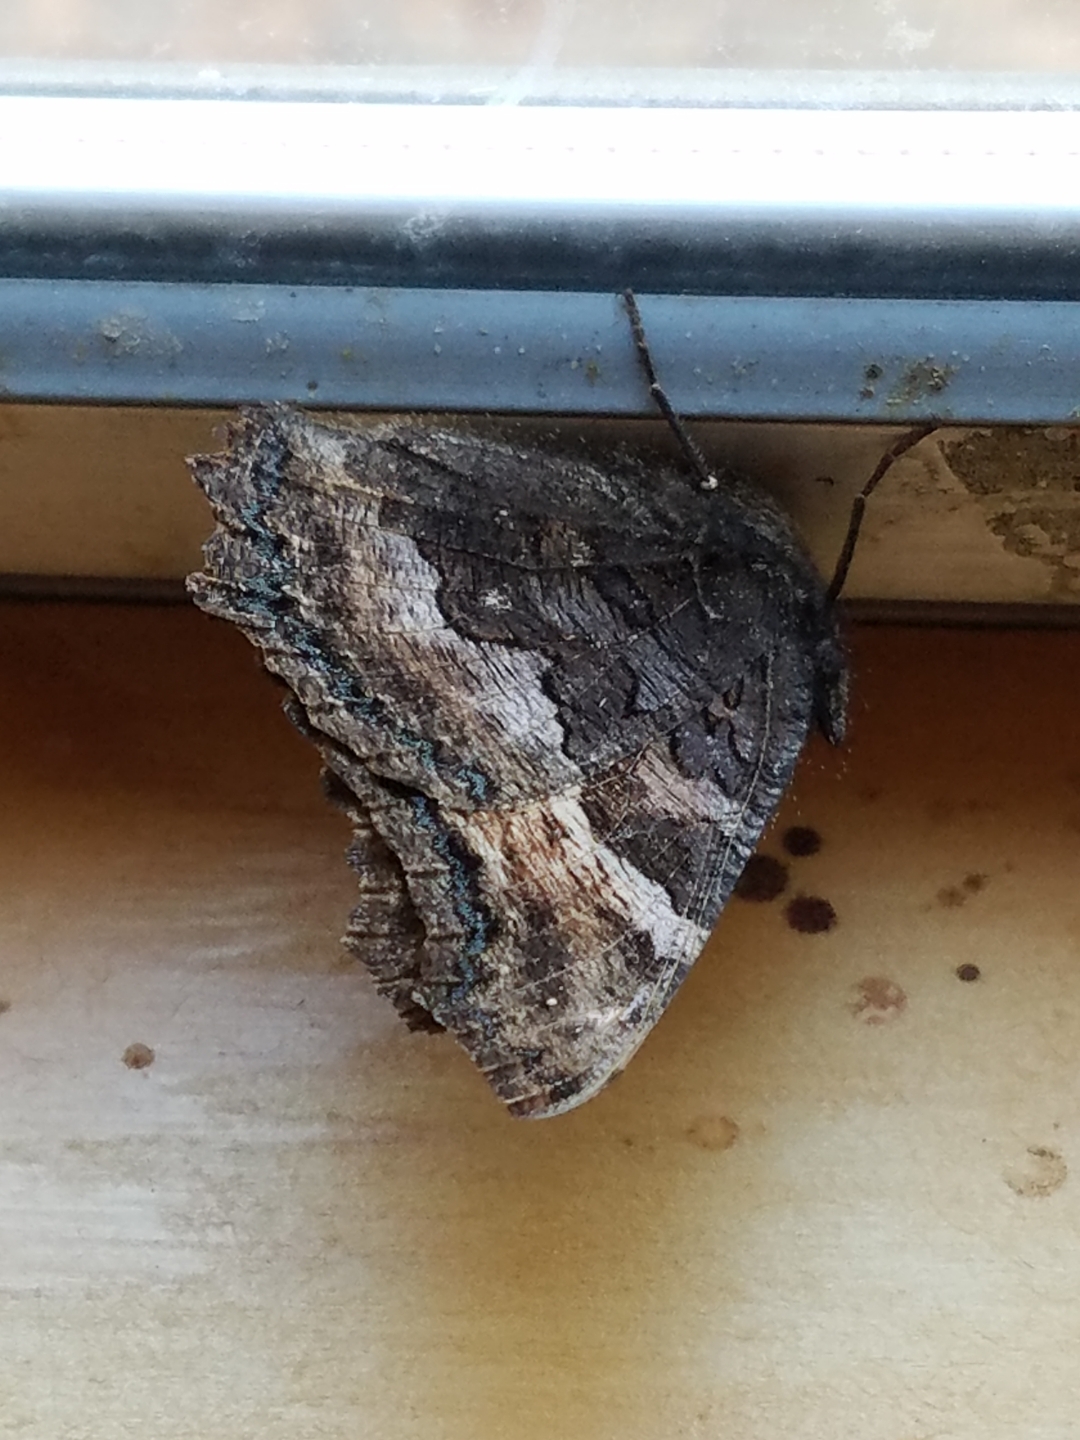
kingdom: Animalia
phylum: Arthropoda
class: Insecta
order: Lepidoptera
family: Nymphalidae
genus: Nymphalis
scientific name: Nymphalis californica
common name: California tortoiseshell
